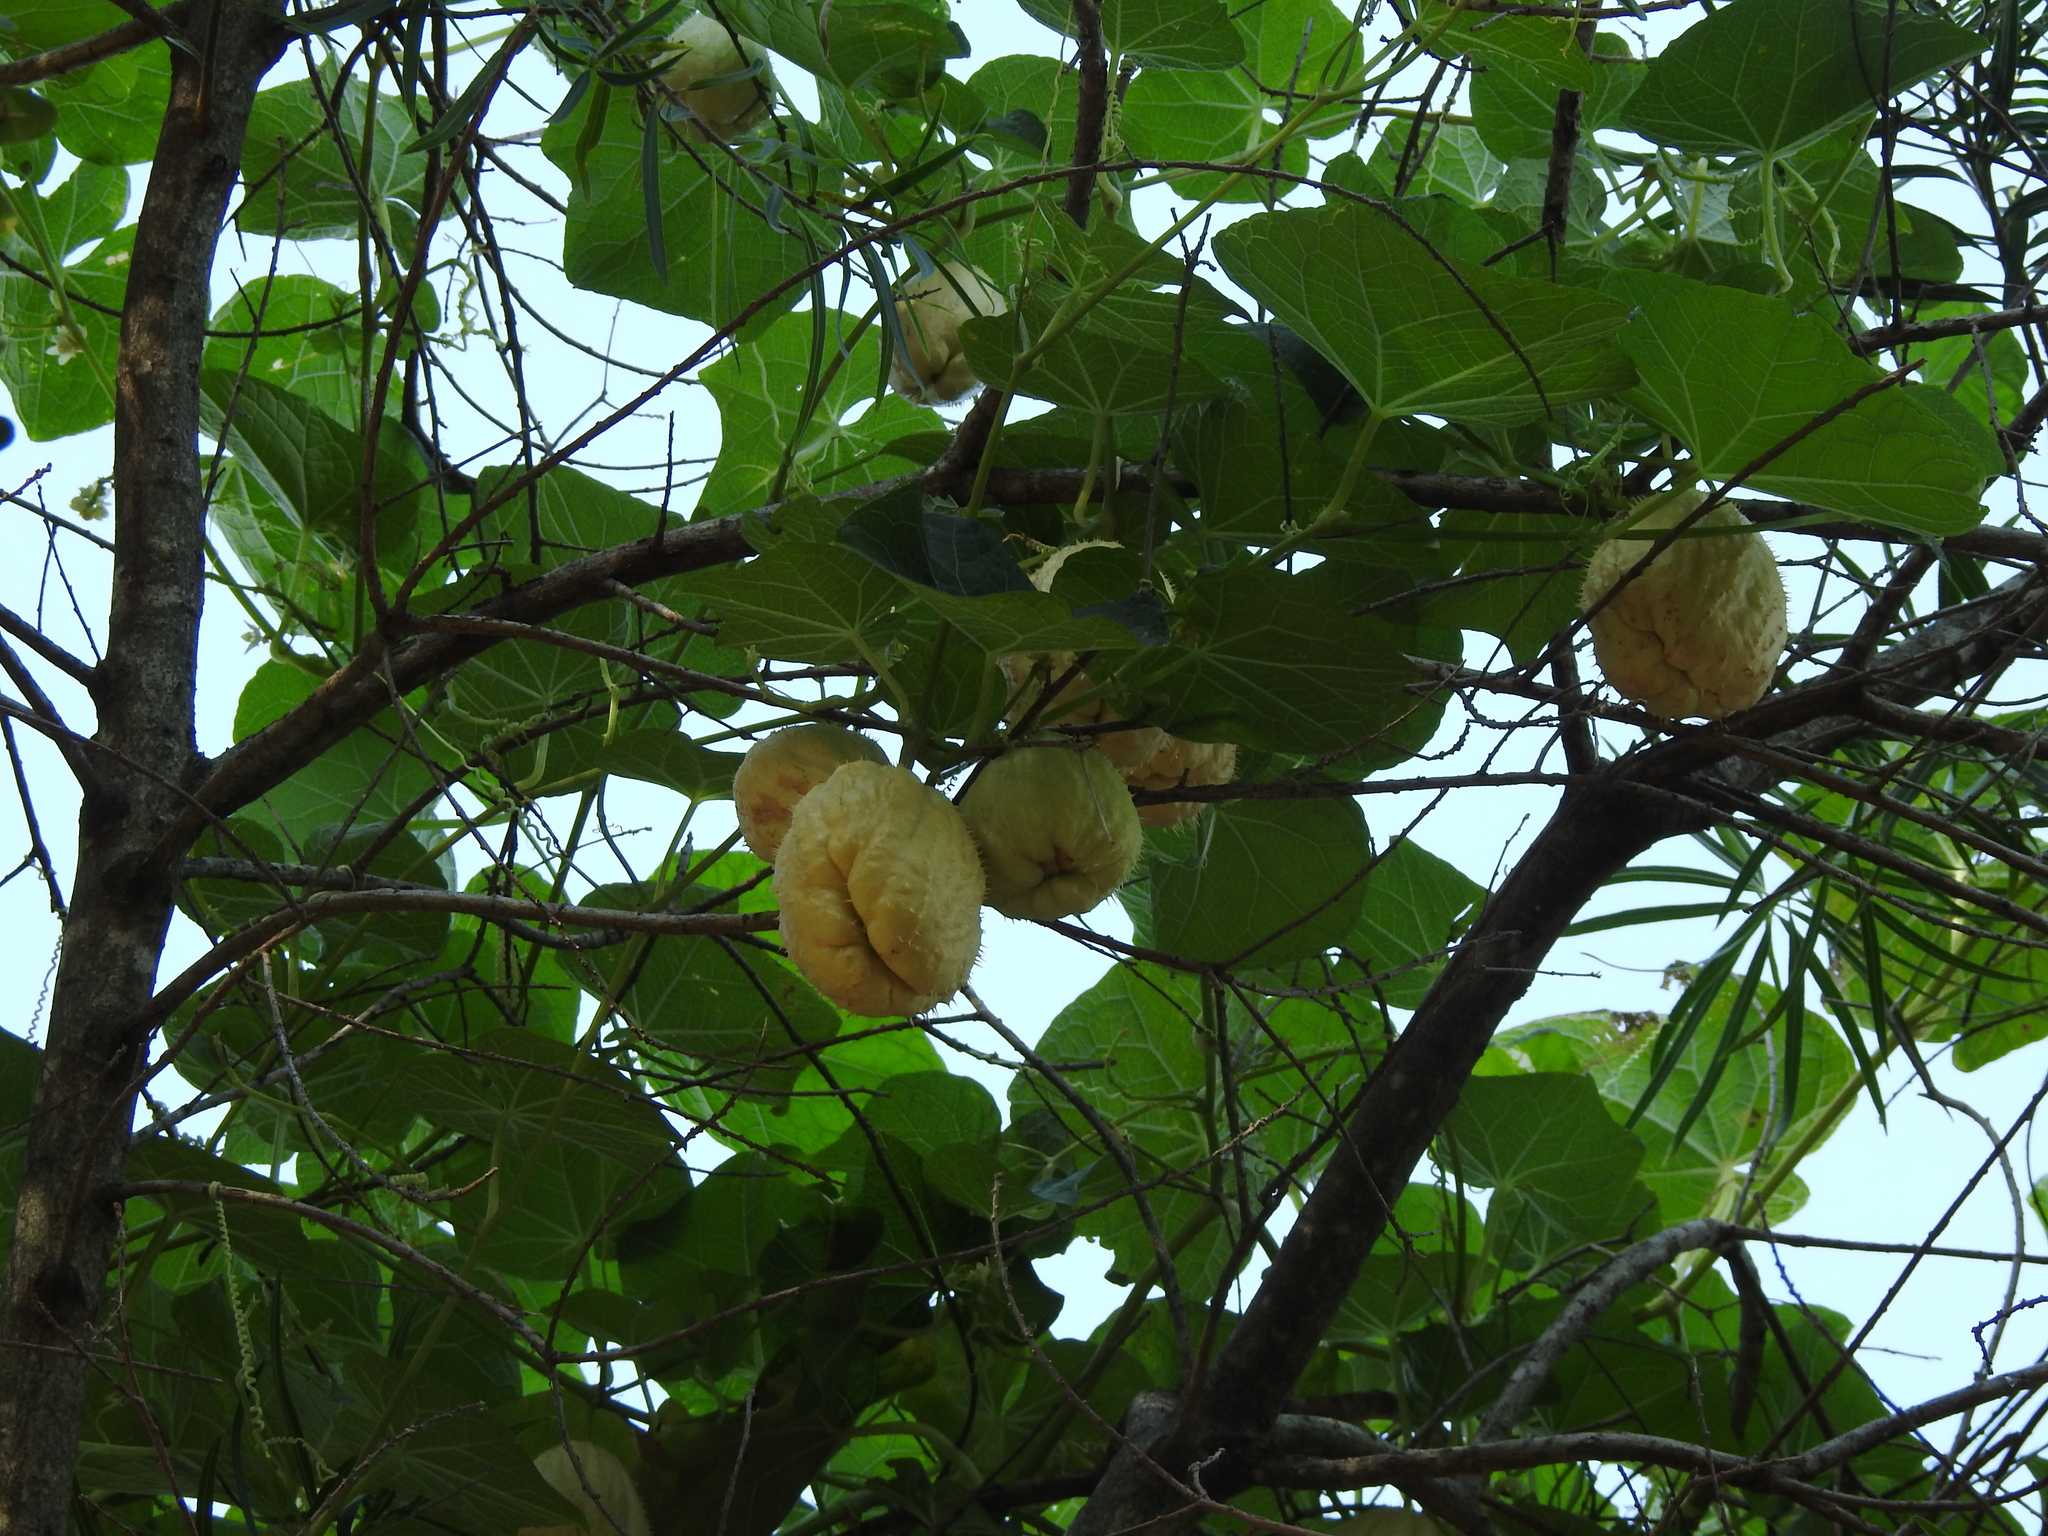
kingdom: Plantae
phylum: Tracheophyta
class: Magnoliopsida
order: Cucurbitales
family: Cucurbitaceae
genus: Sechium
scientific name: Sechium edule
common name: Chayote
